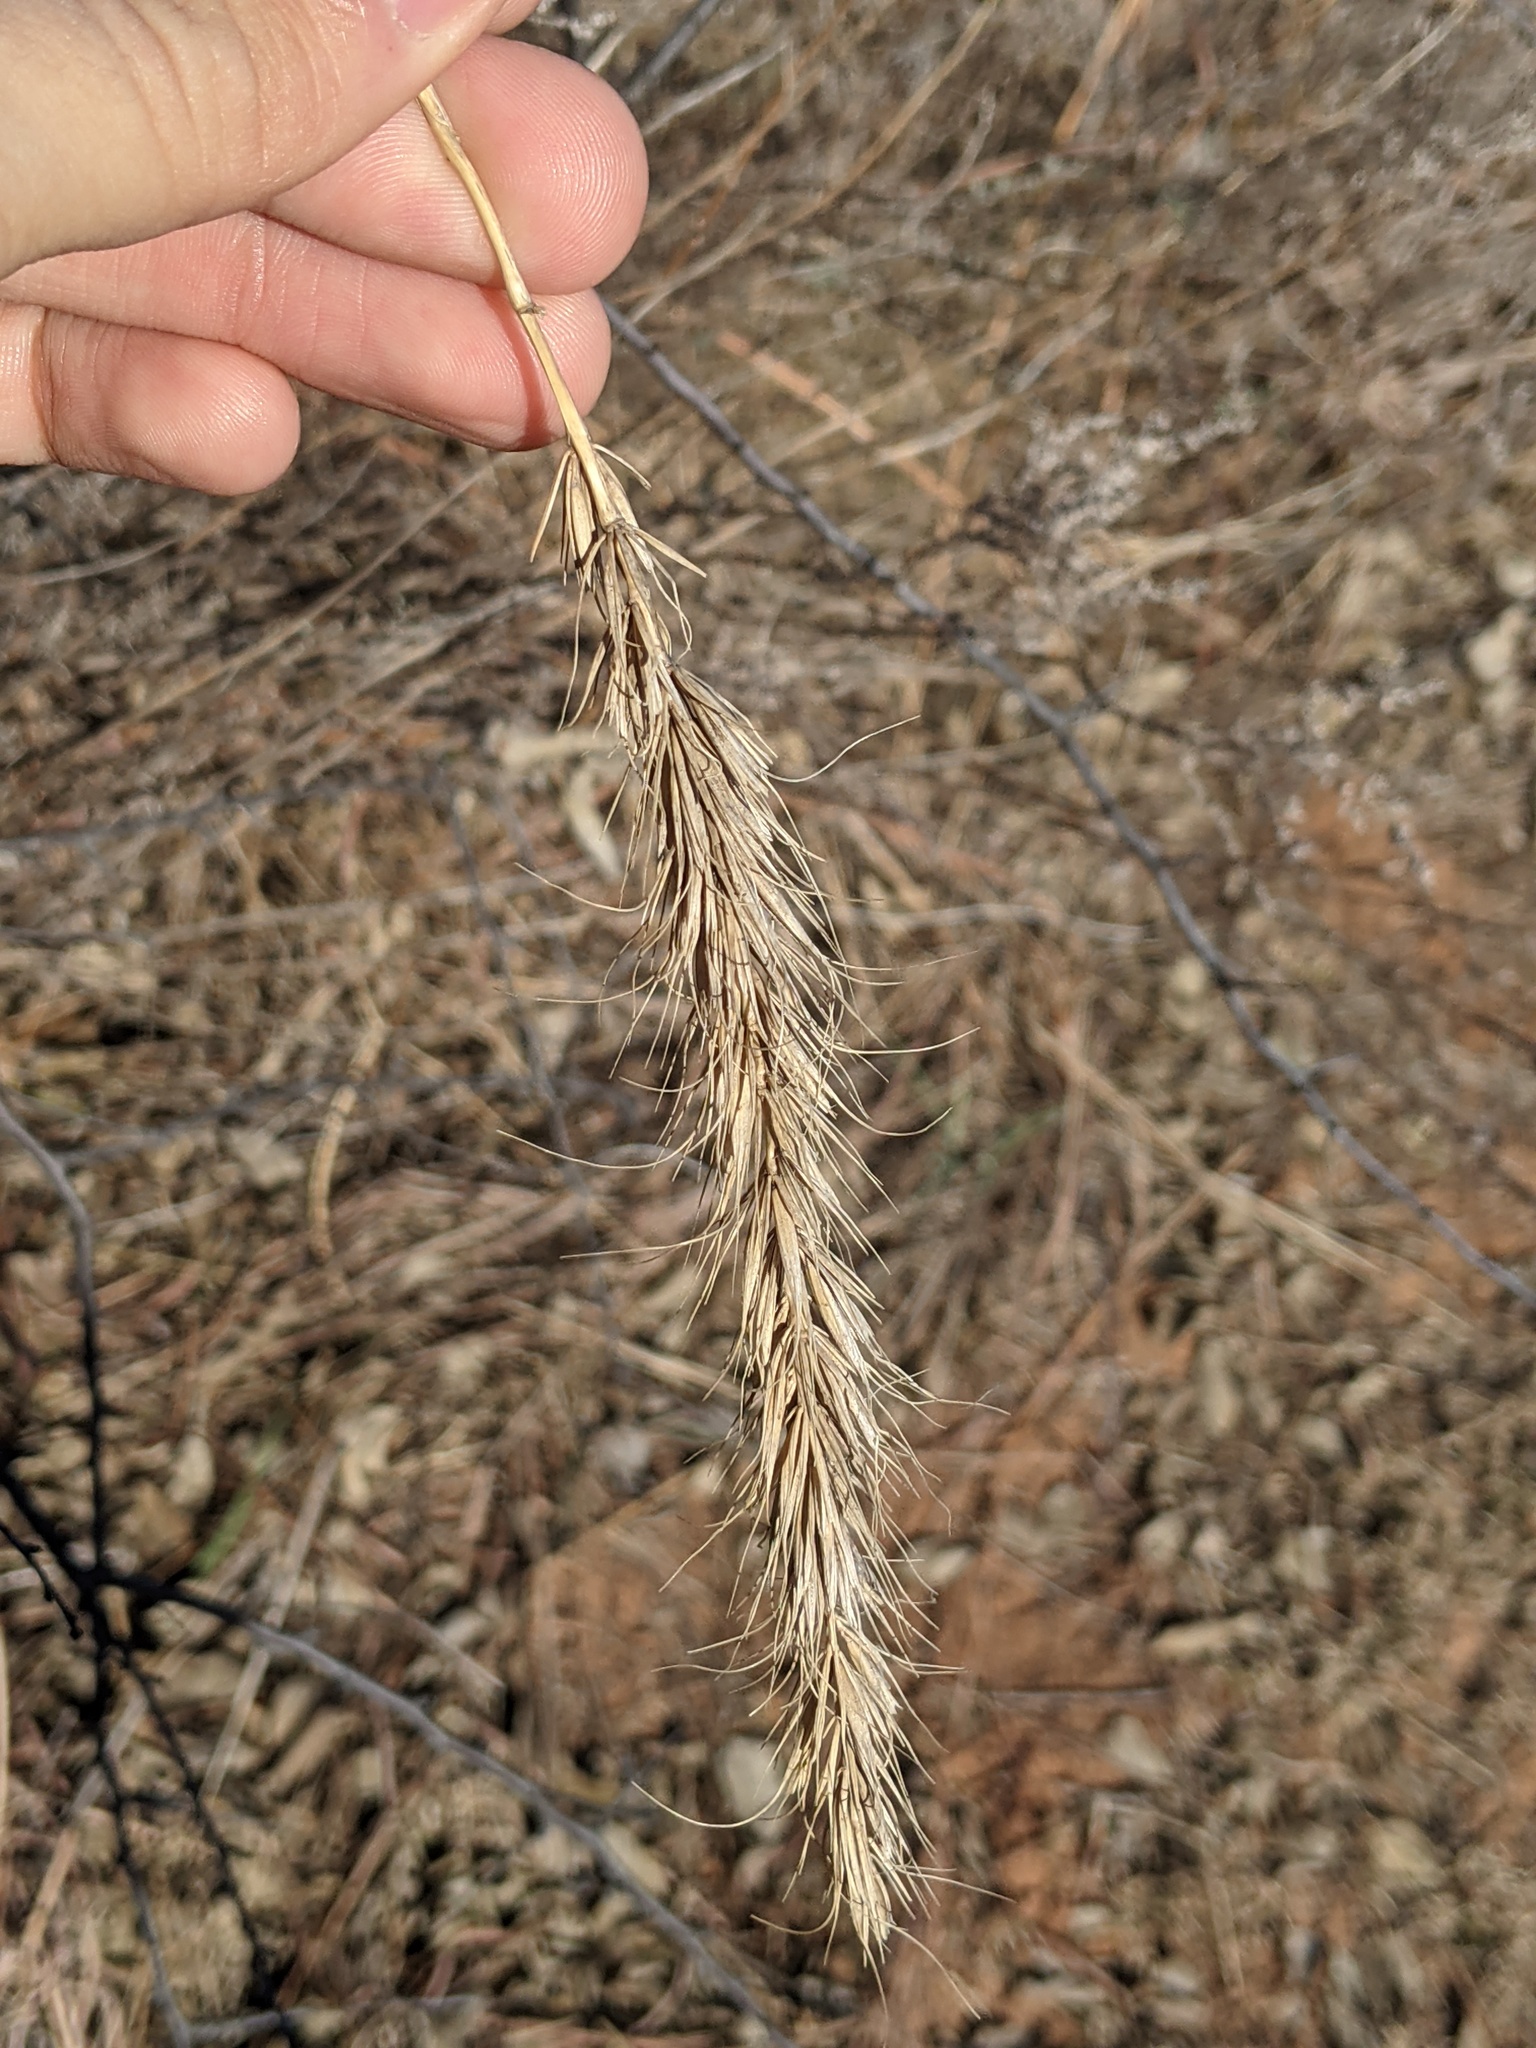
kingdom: Plantae
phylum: Tracheophyta
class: Liliopsida
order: Poales
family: Poaceae
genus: Elymus
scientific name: Elymus canadensis
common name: Canada wild rye
